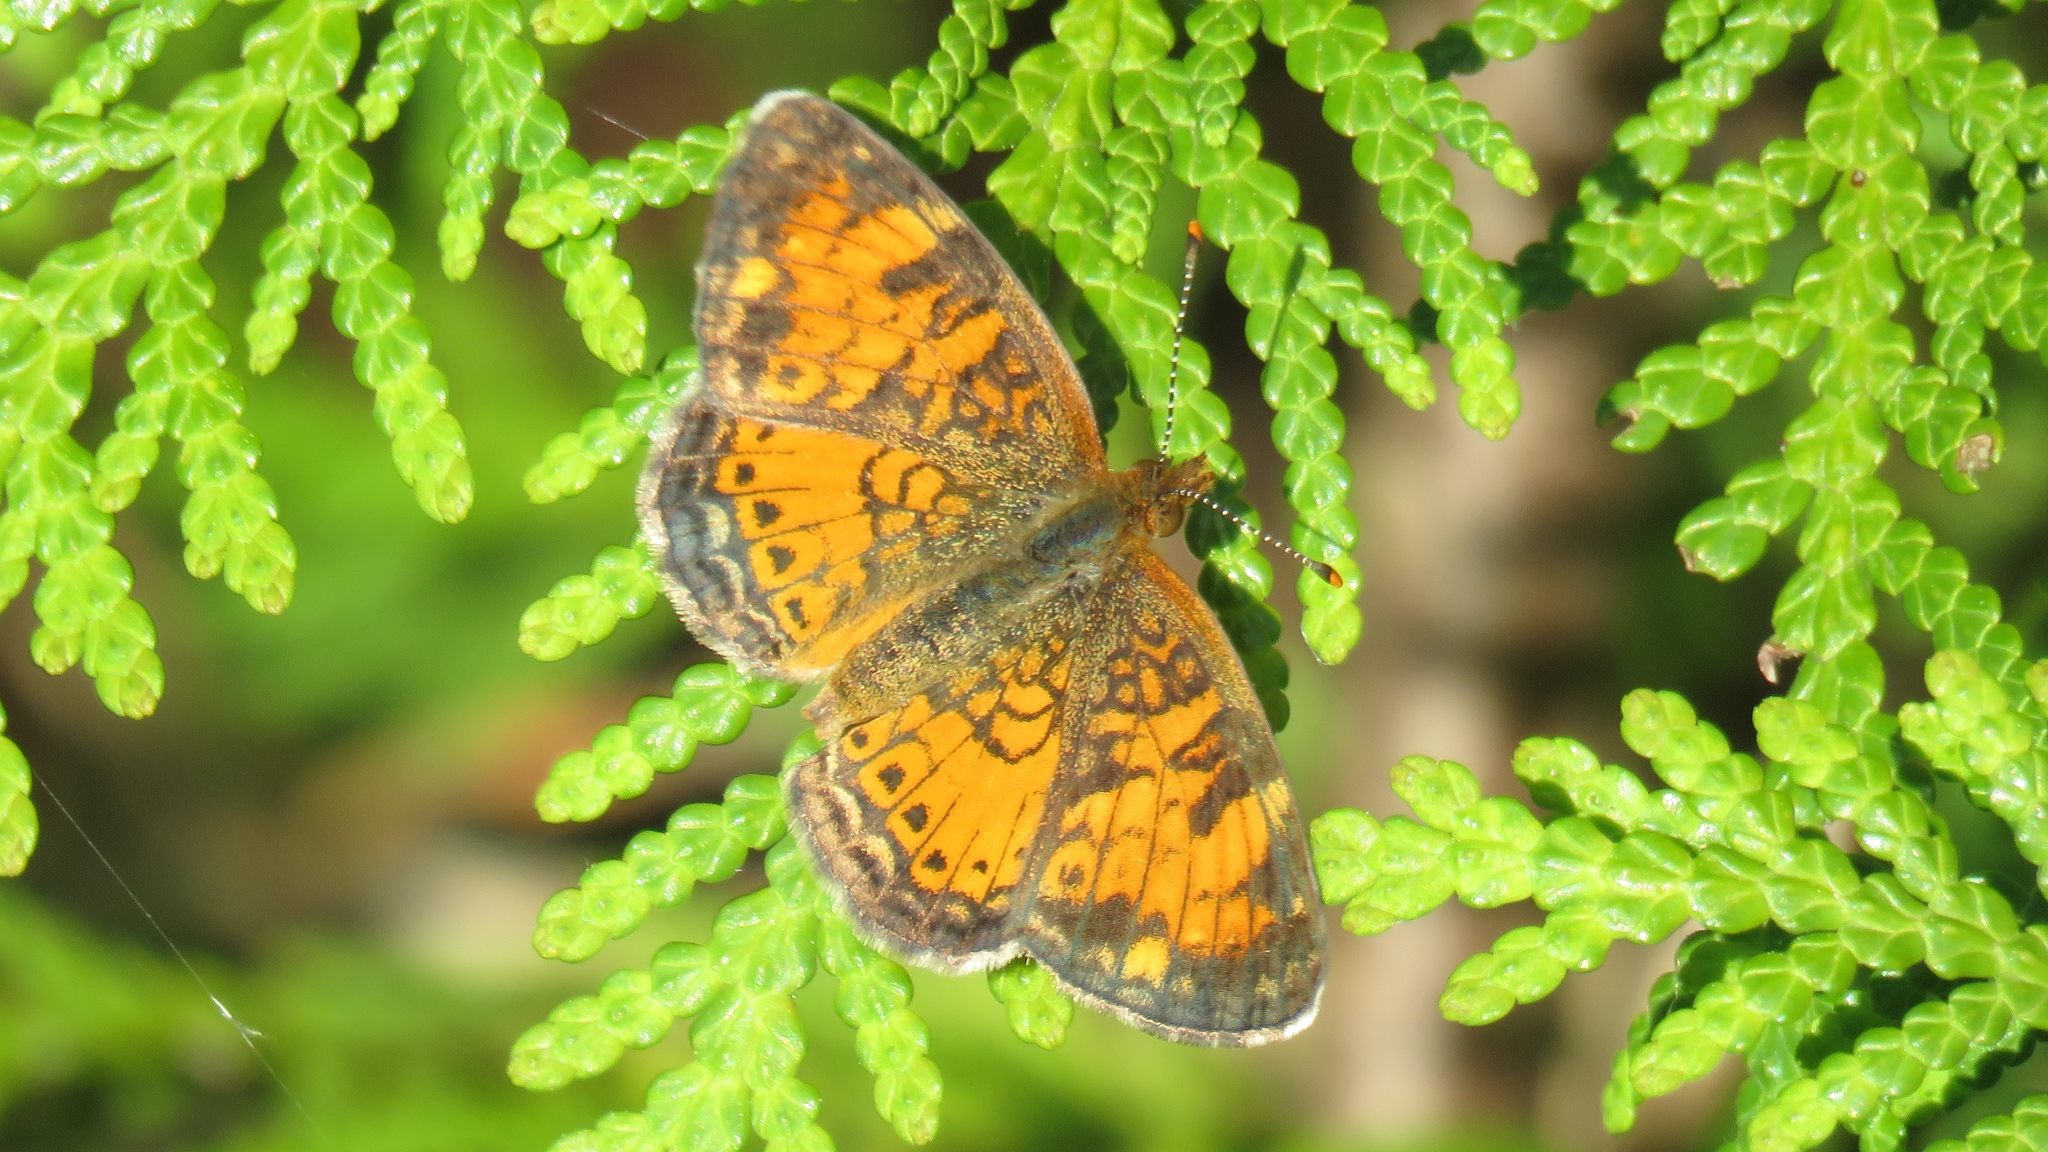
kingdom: Animalia
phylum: Arthropoda
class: Insecta
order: Lepidoptera
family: Nymphalidae
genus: Phyciodes
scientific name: Phyciodes tharos
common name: Pearl crescent
